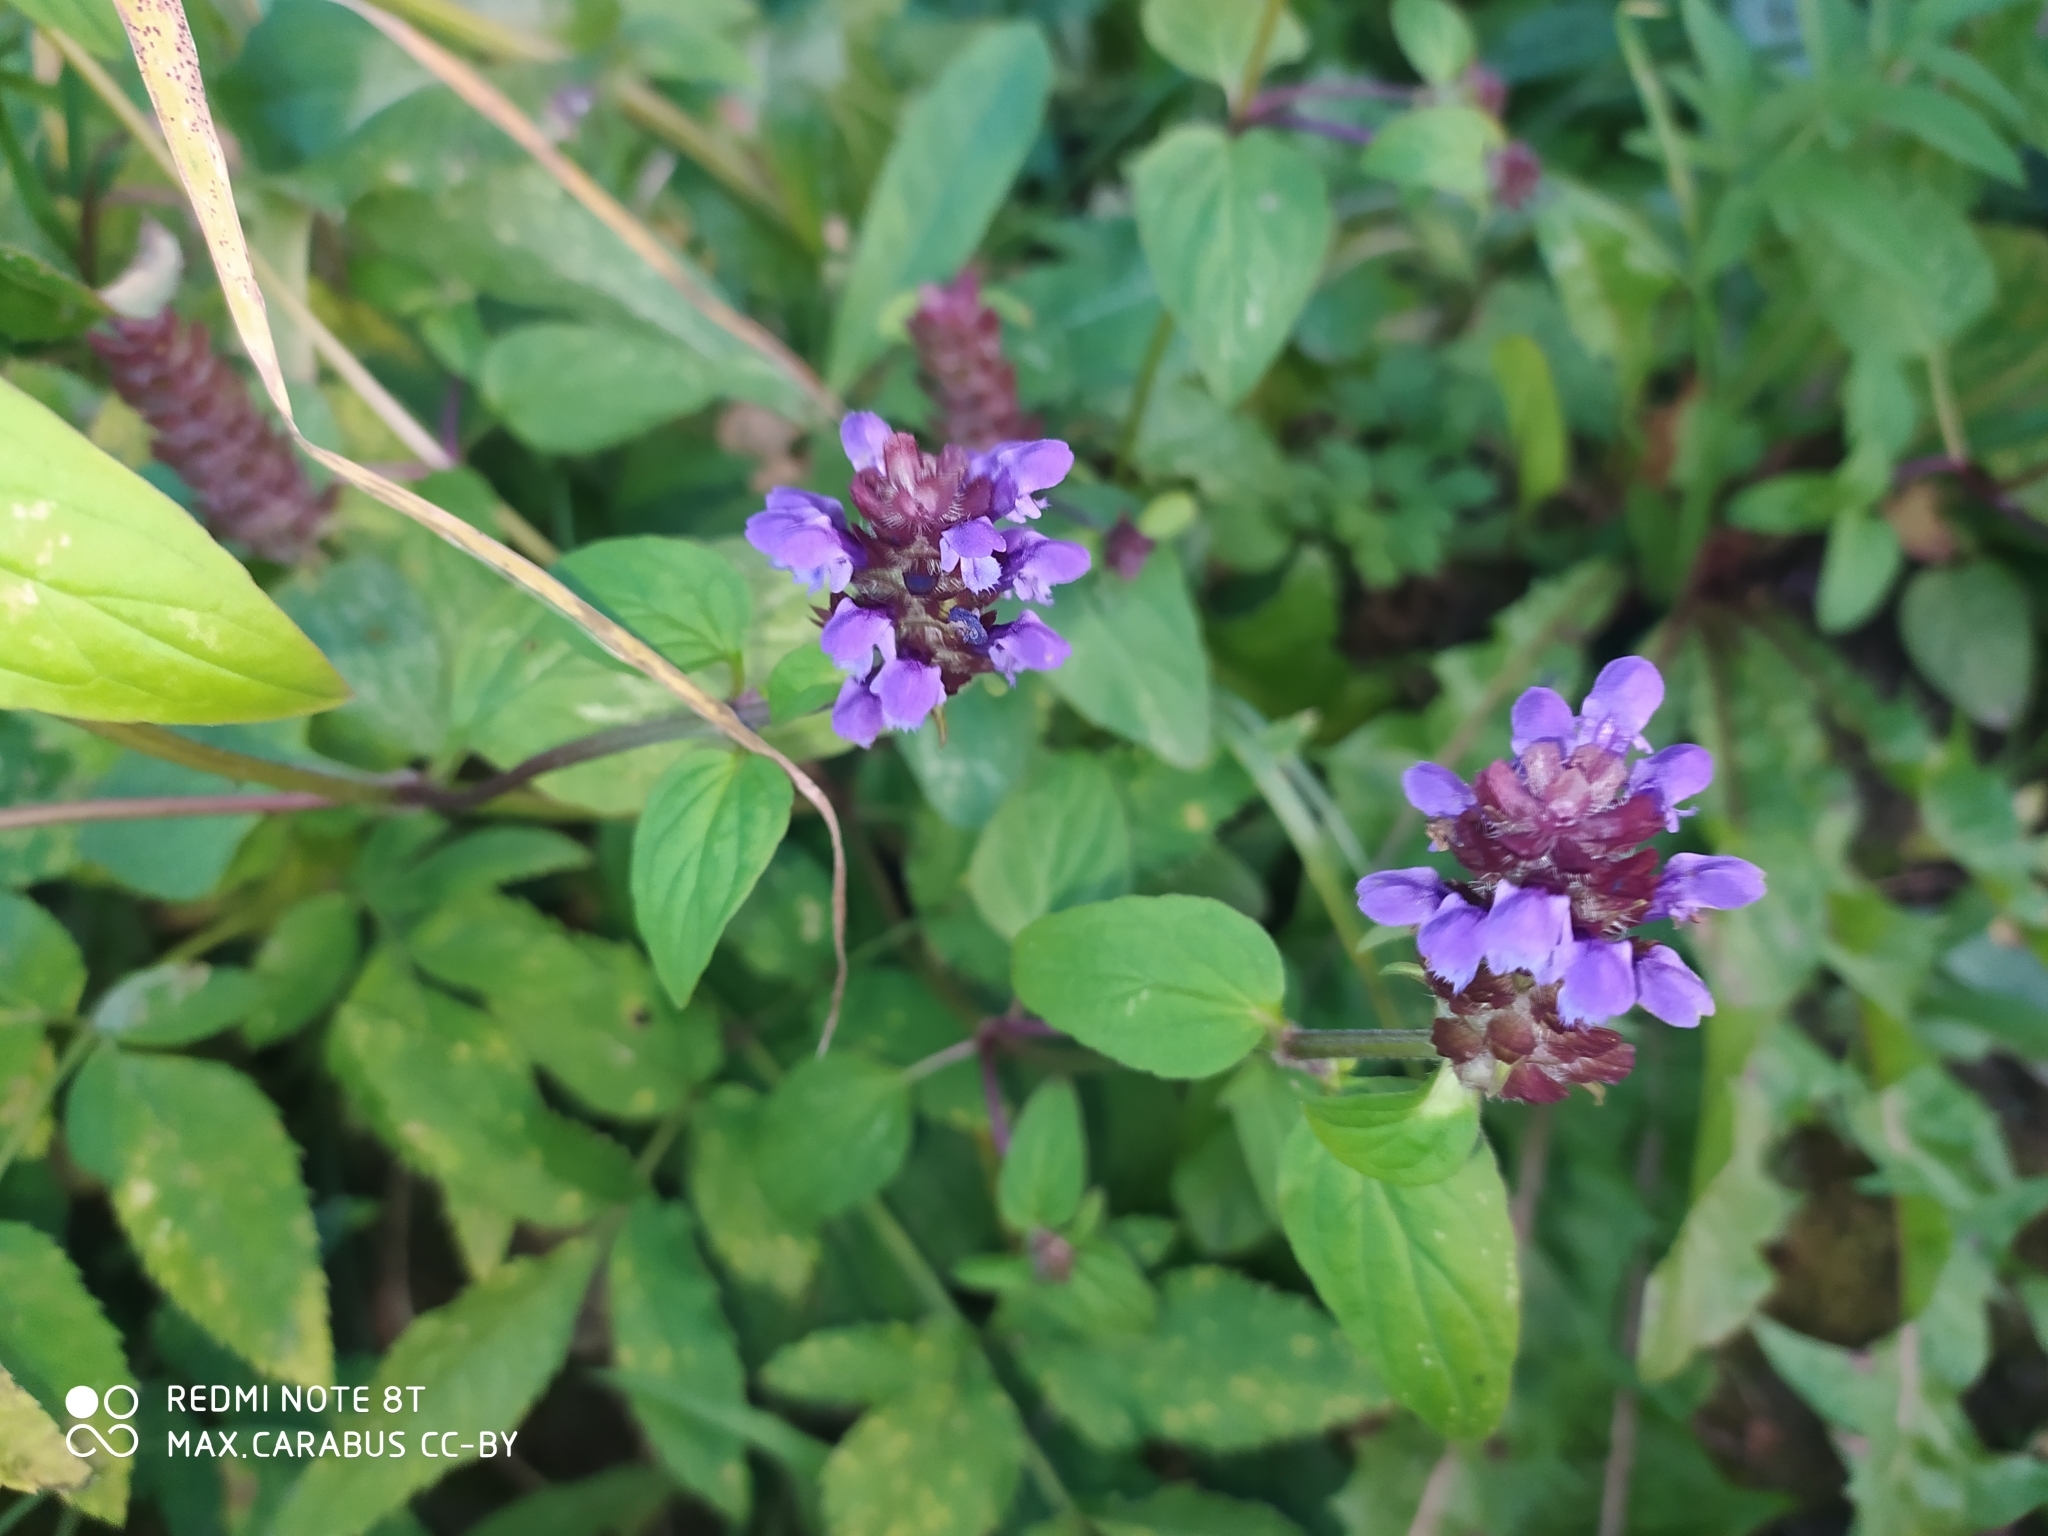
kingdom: Plantae
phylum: Tracheophyta
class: Magnoliopsida
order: Lamiales
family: Lamiaceae
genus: Prunella
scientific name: Prunella vulgaris
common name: Heal-all
